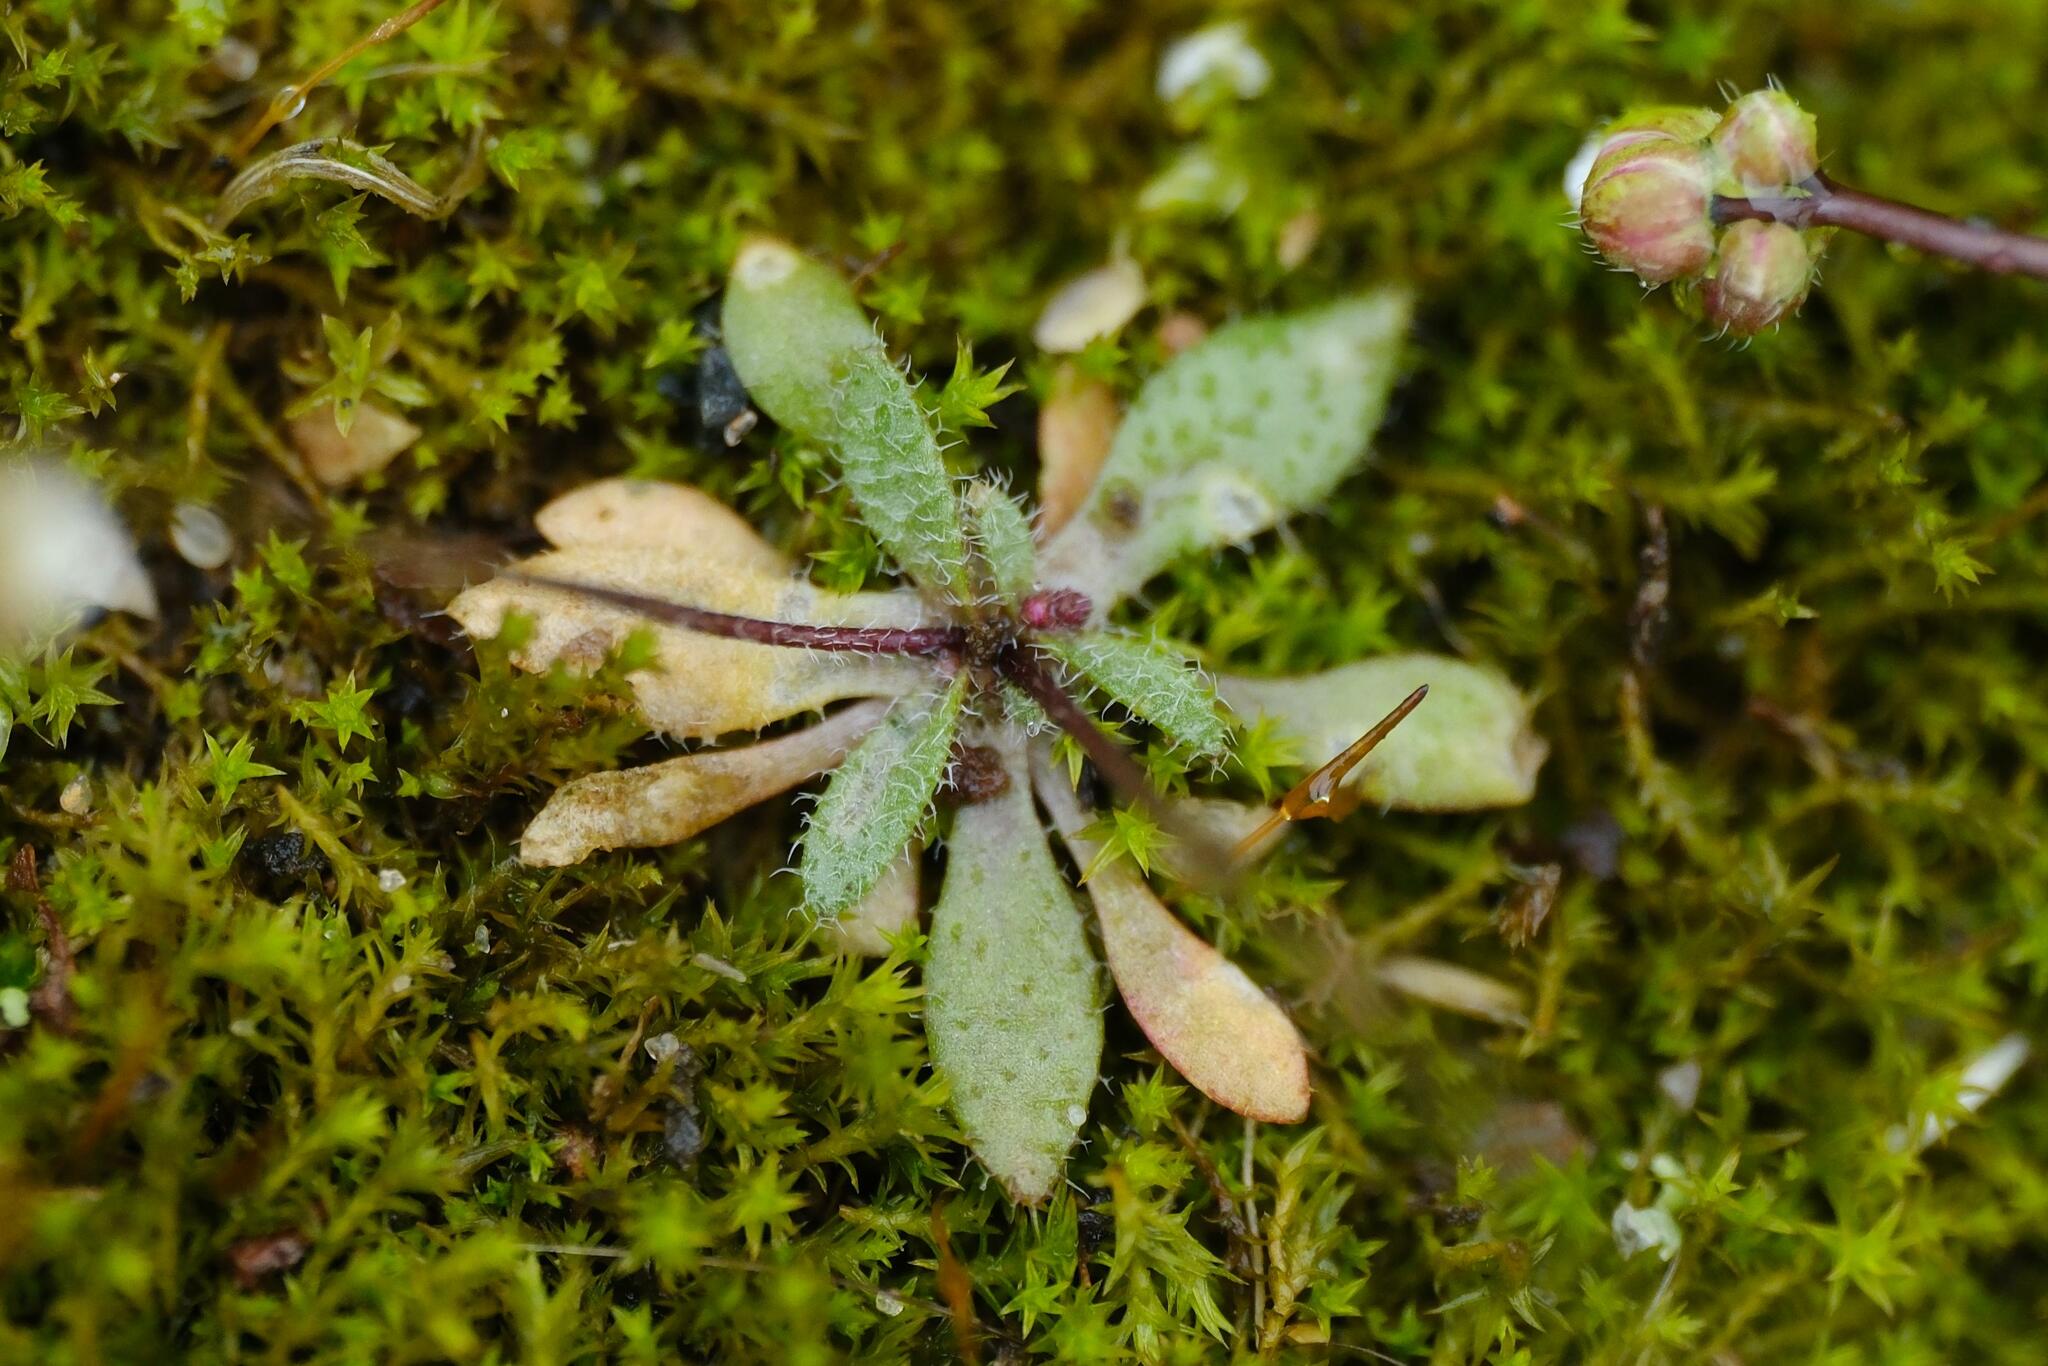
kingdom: Plantae
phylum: Tracheophyta
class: Magnoliopsida
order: Brassicales
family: Brassicaceae
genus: Draba
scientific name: Draba verna
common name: Spring draba
